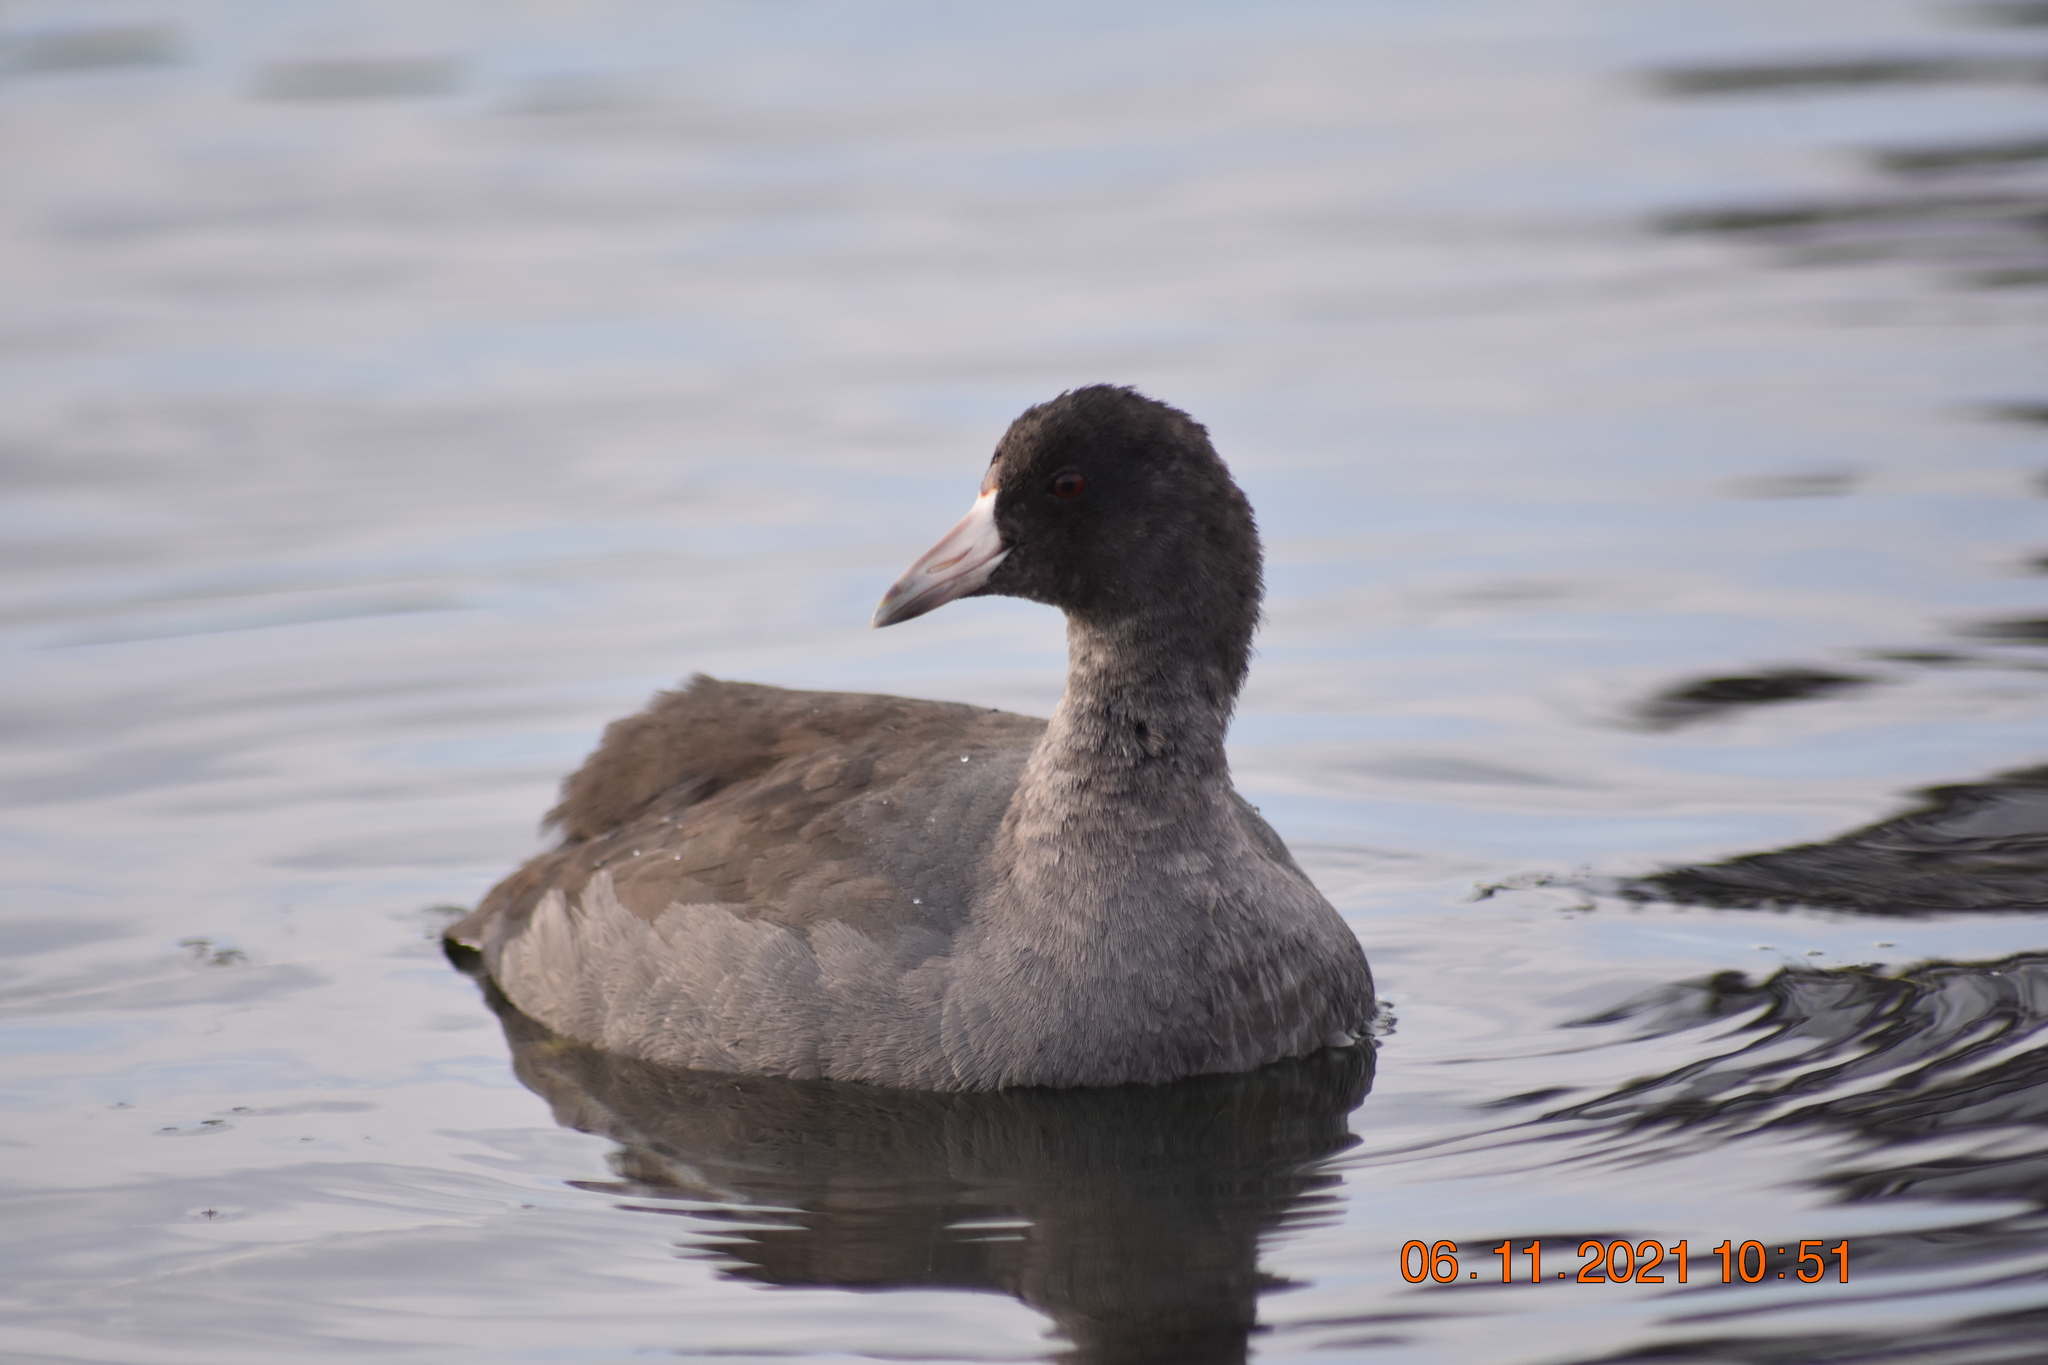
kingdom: Animalia
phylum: Chordata
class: Aves
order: Gruiformes
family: Rallidae
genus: Fulica
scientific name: Fulica americana
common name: American coot
